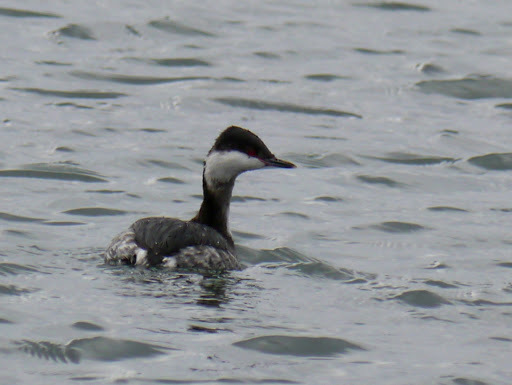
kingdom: Animalia
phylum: Chordata
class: Aves
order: Podicipediformes
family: Podicipedidae
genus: Podiceps
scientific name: Podiceps auritus
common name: Horned grebe
